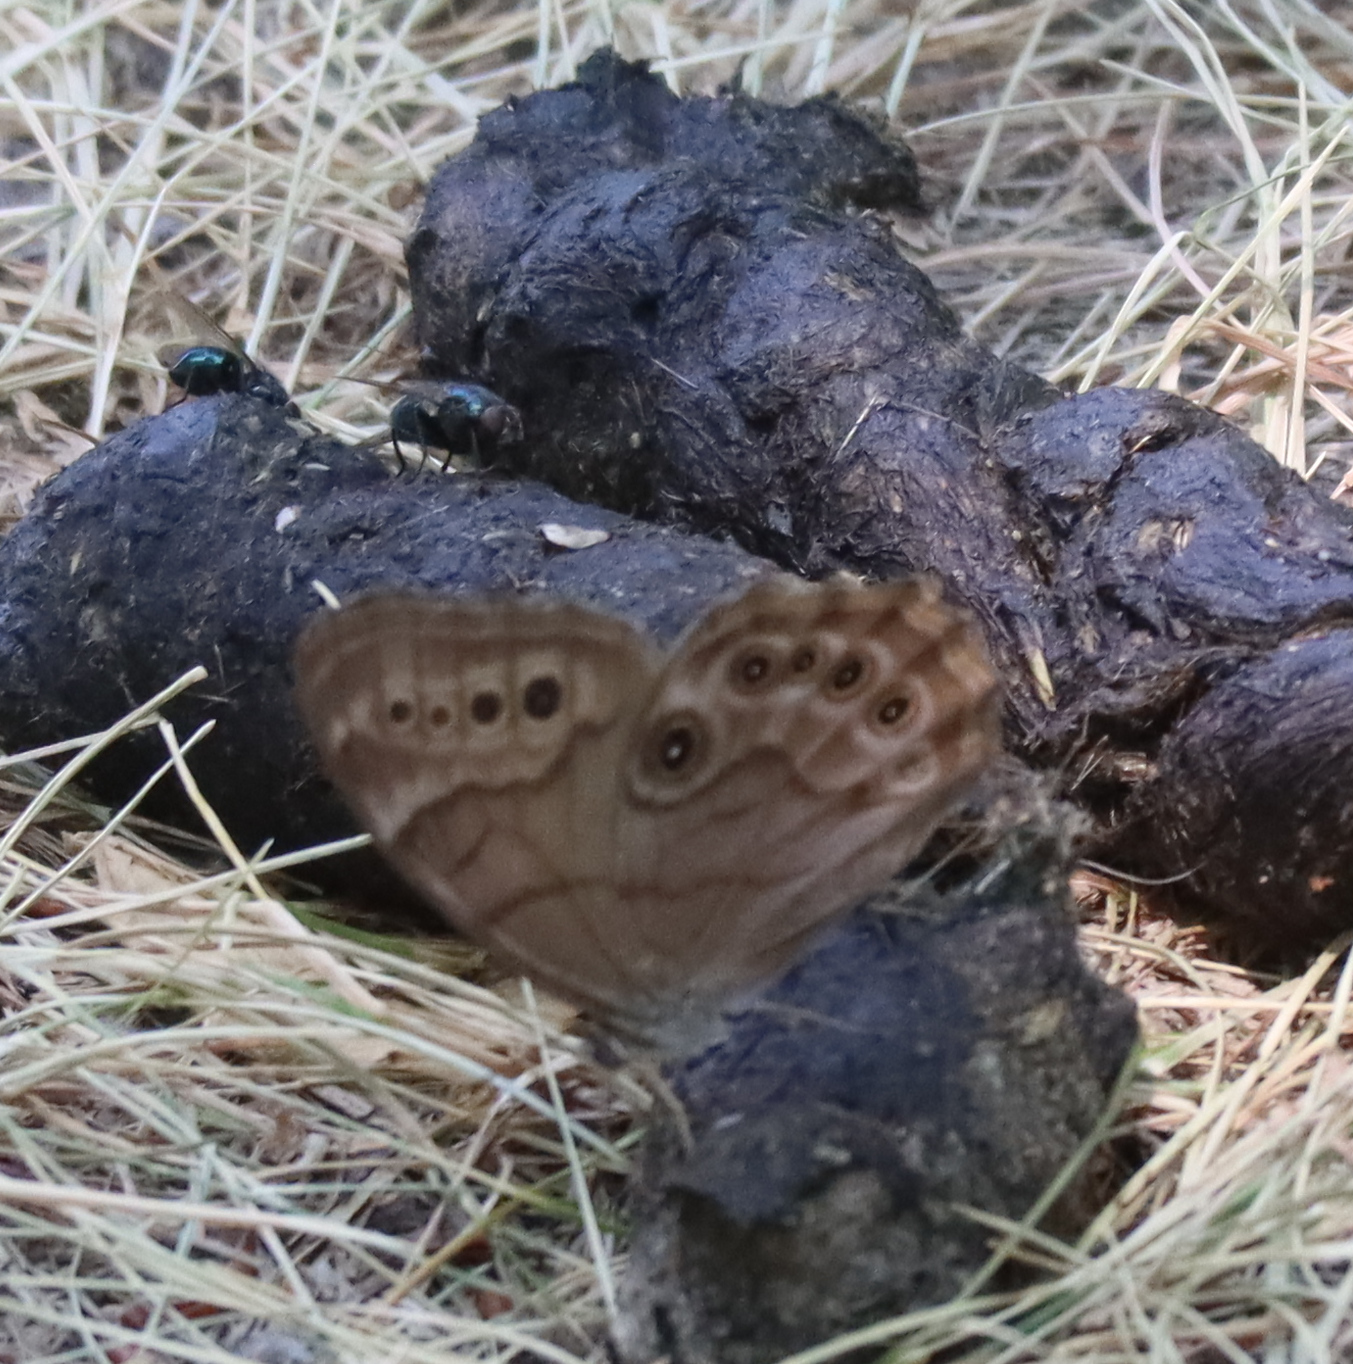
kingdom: Animalia
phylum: Arthropoda
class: Insecta
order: Lepidoptera
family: Nymphalidae
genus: Lethe
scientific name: Lethe anthedon
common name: Northern pearly-eye
